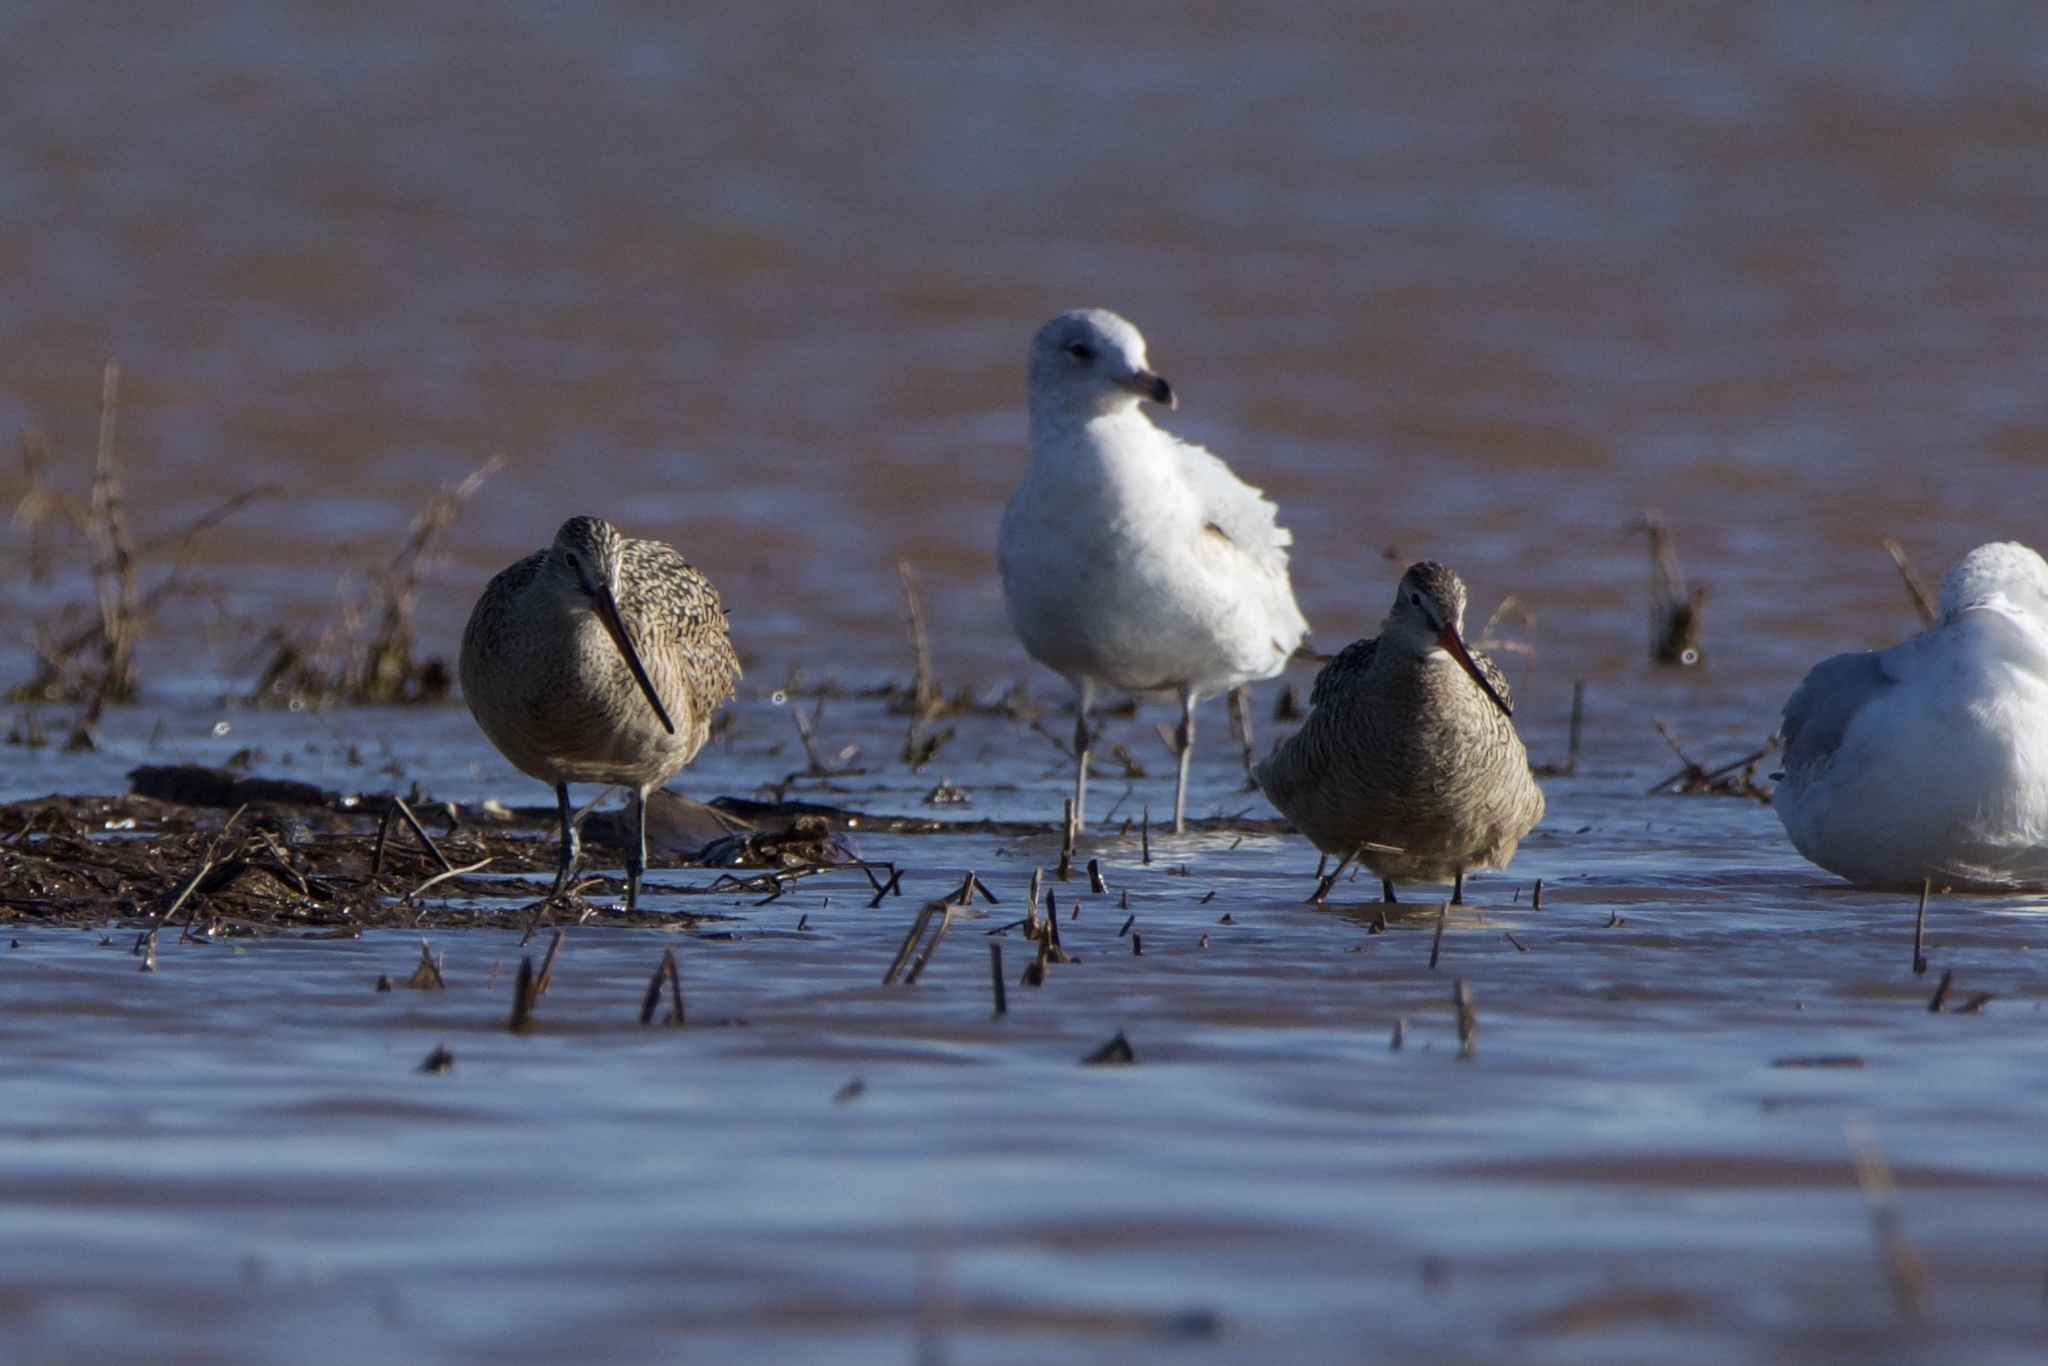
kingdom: Animalia
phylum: Chordata
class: Aves
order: Charadriiformes
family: Scolopacidae
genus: Limosa
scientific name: Limosa fedoa
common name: Marbled godwit
